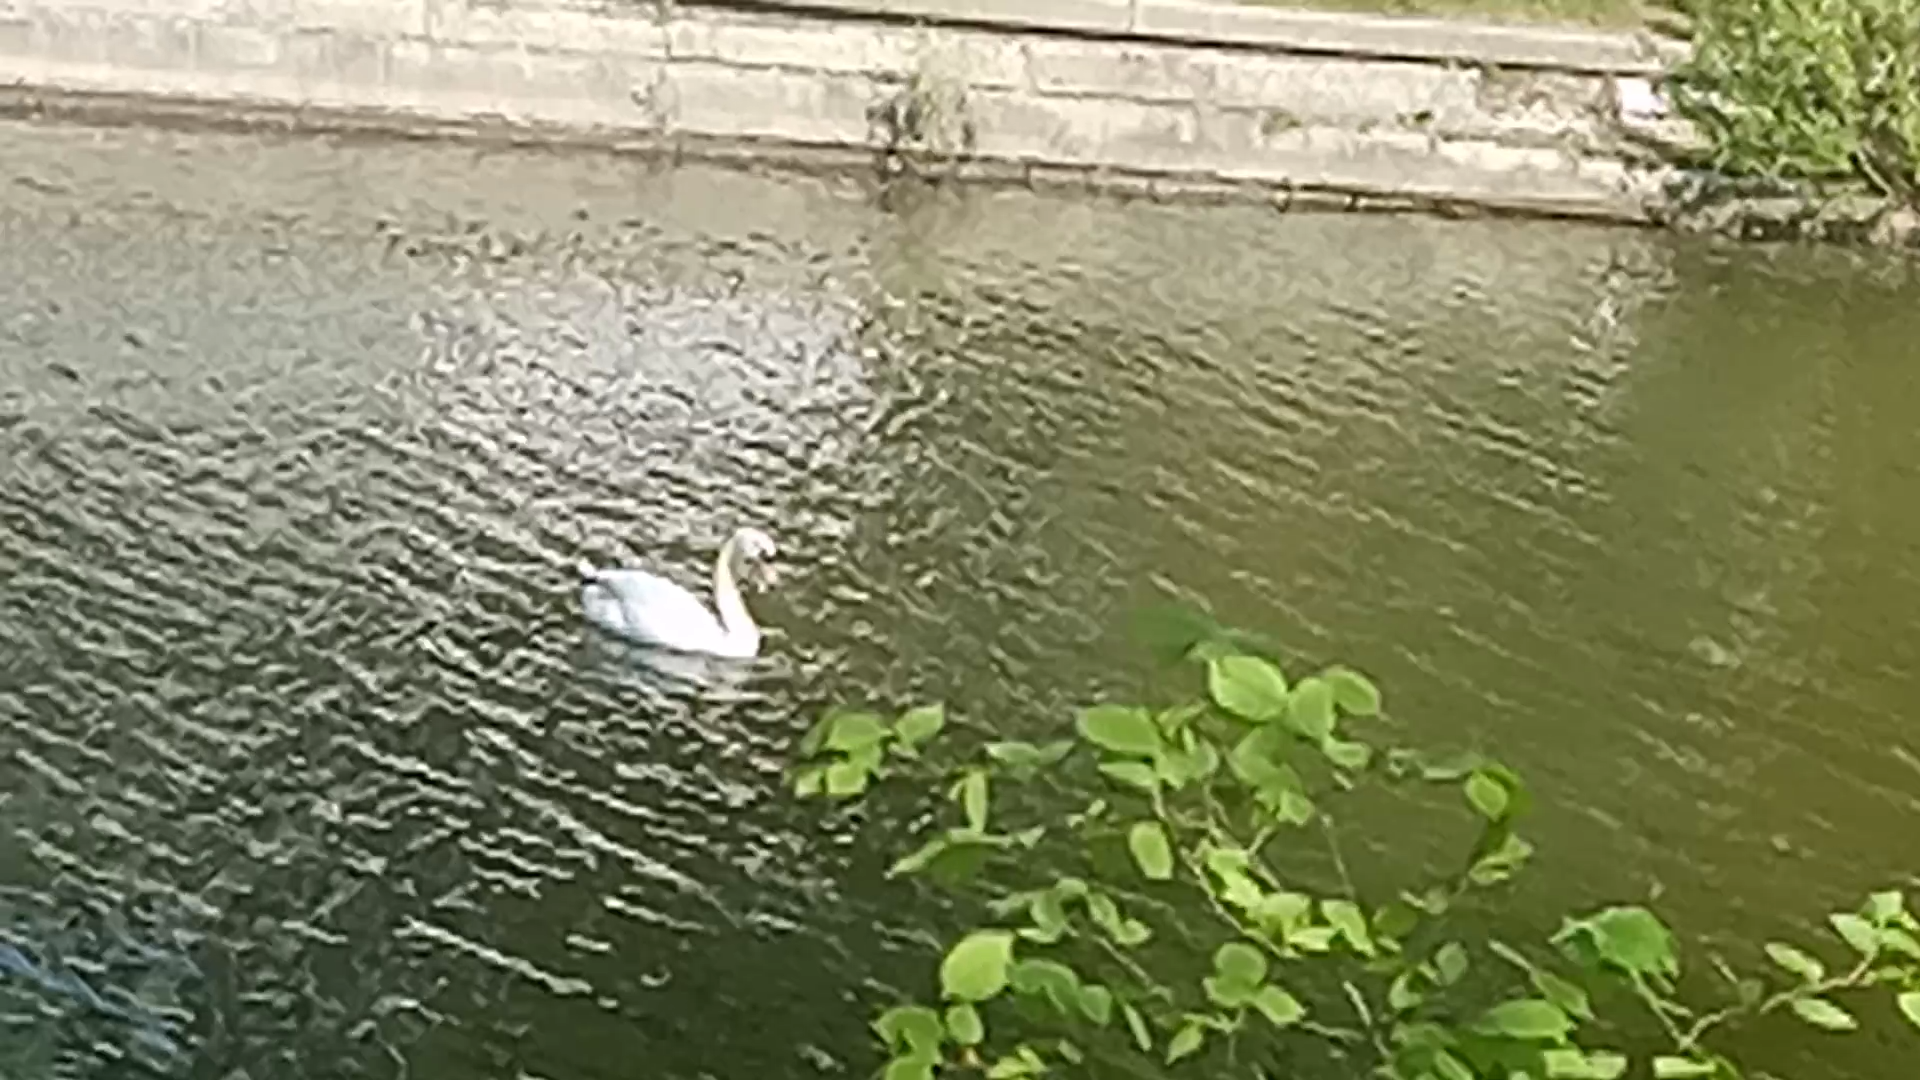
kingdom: Animalia
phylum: Chordata
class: Aves
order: Anseriformes
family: Anatidae
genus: Cygnus
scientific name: Cygnus olor
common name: Mute swan
